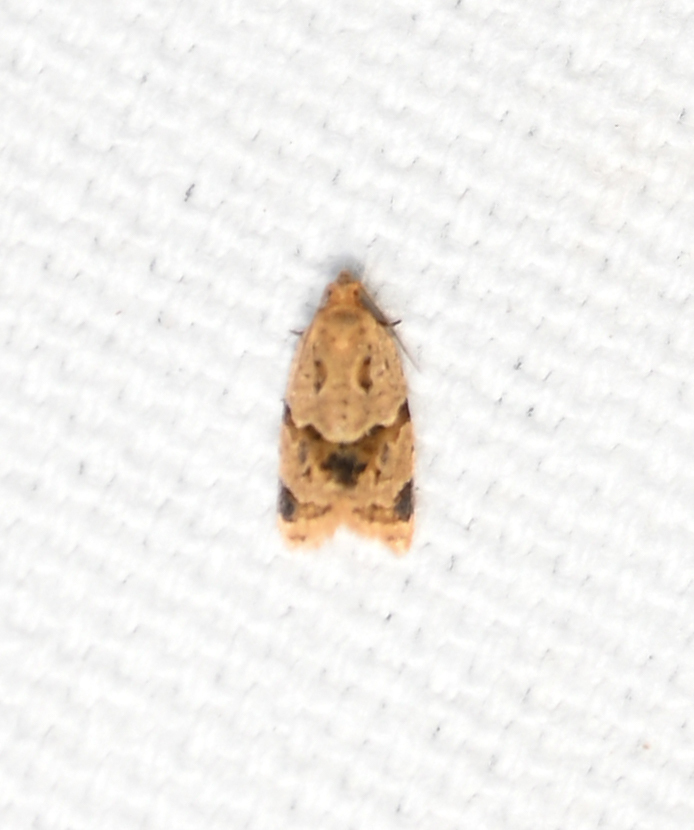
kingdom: Animalia
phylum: Arthropoda
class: Insecta
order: Lepidoptera
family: Tortricidae
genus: Clepsis
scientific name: Clepsis peritana
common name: Garden tortrix
